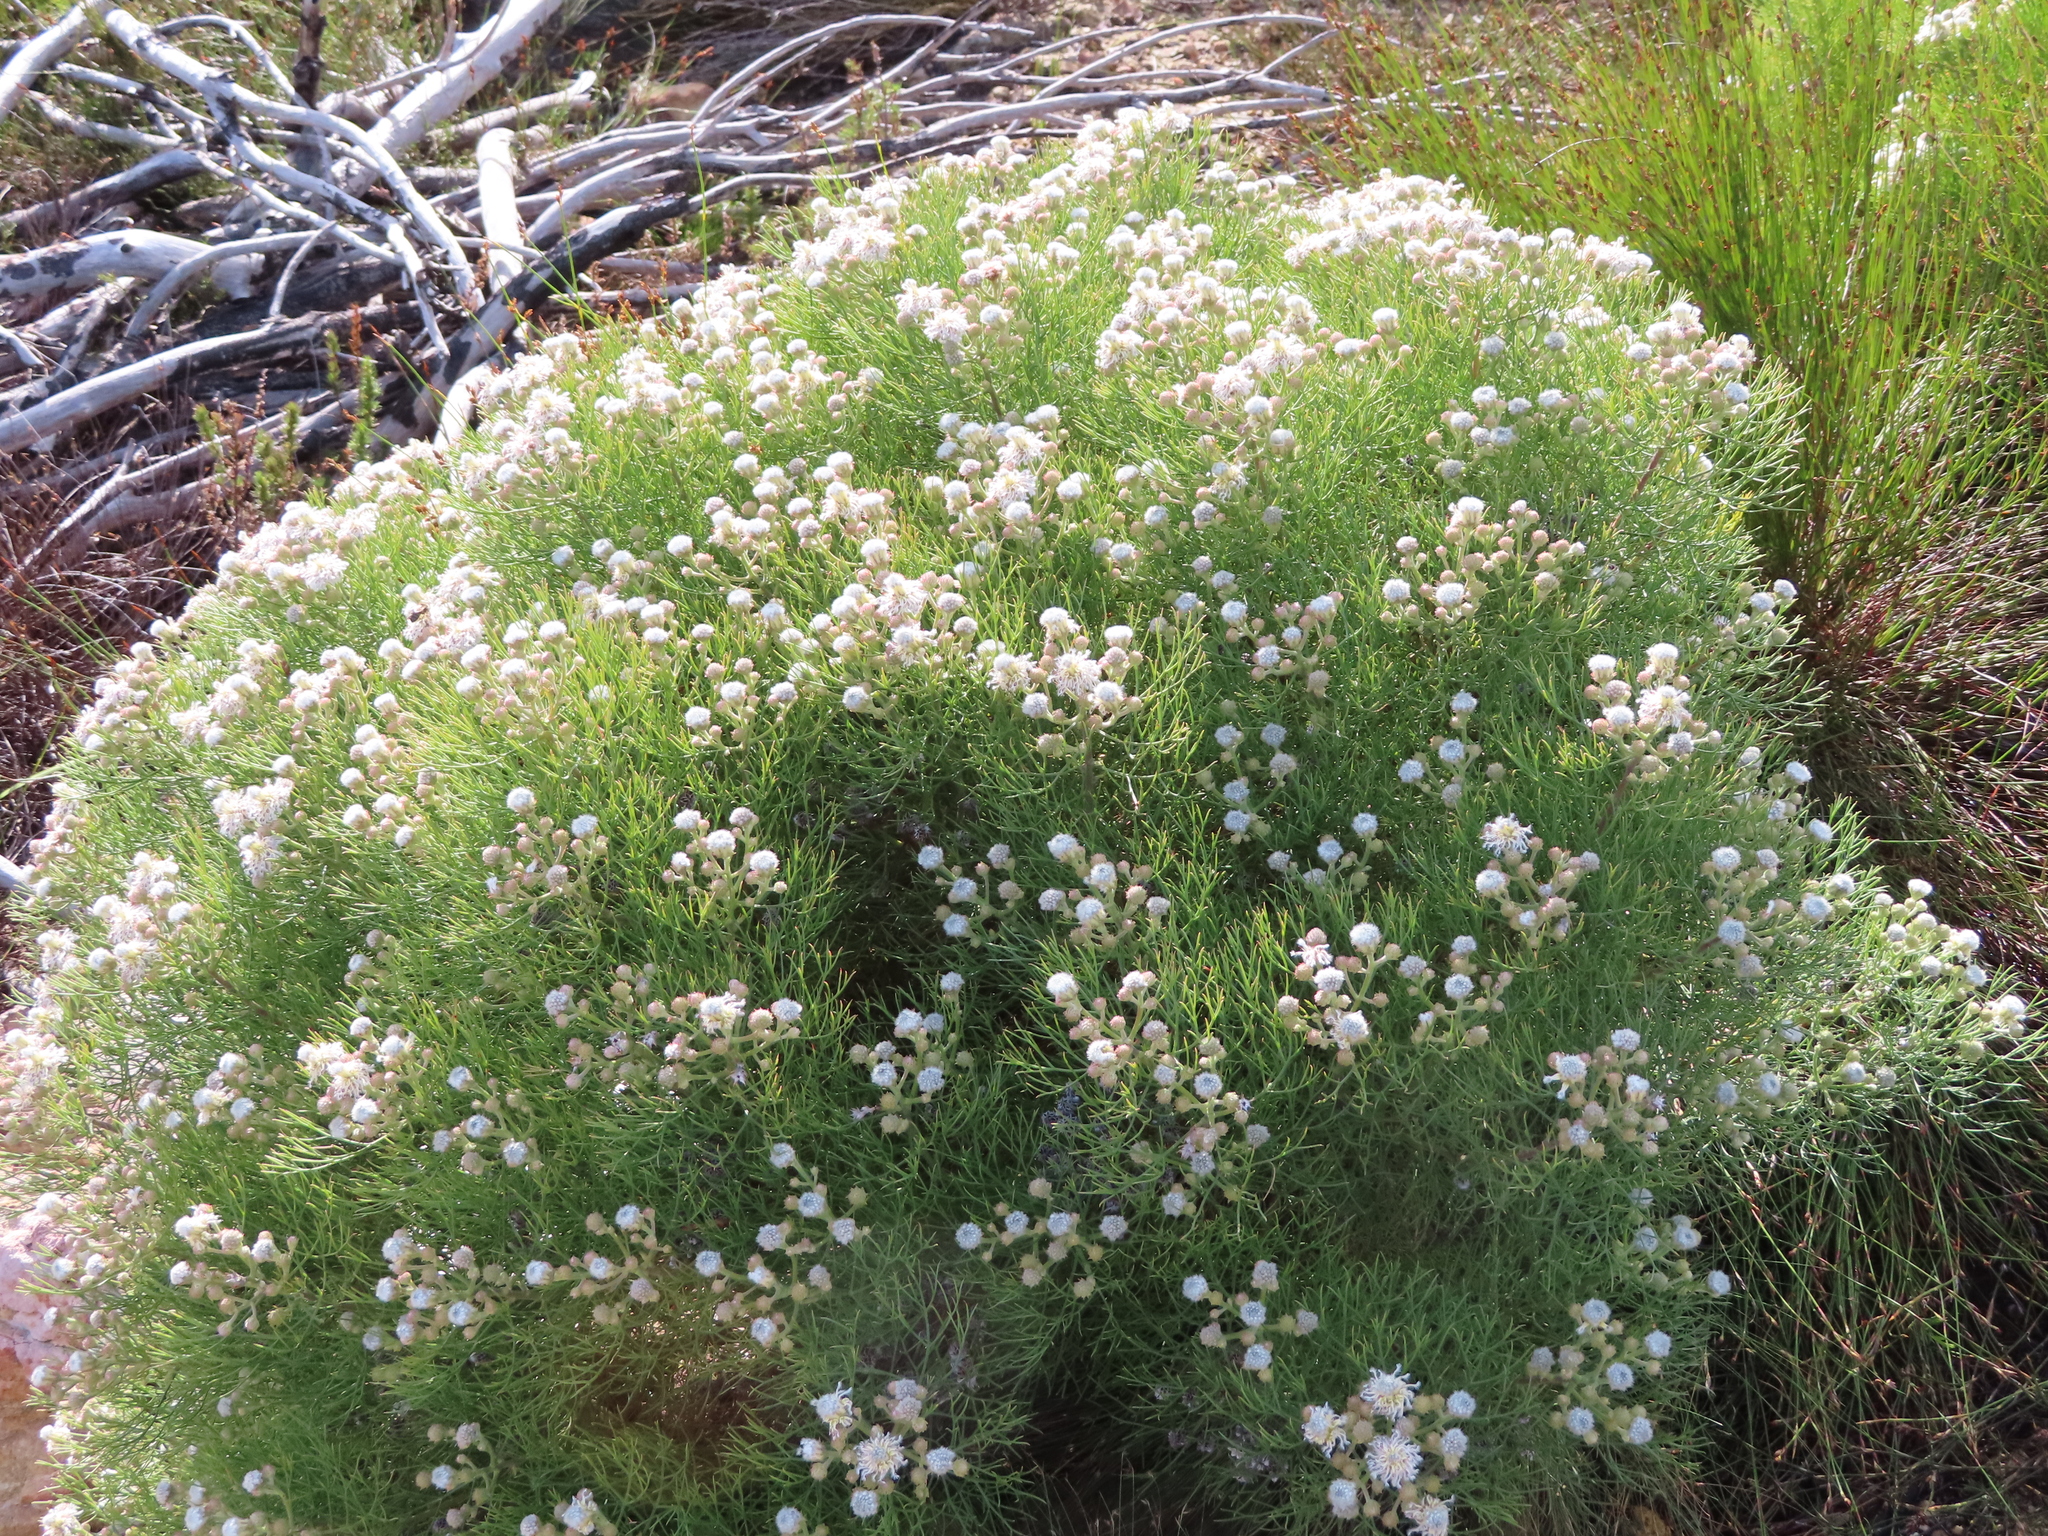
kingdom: Plantae
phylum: Tracheophyta
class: Magnoliopsida
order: Proteales
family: Proteaceae
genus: Serruria
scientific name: Serruria kraussii
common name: Snowball spiderhead
